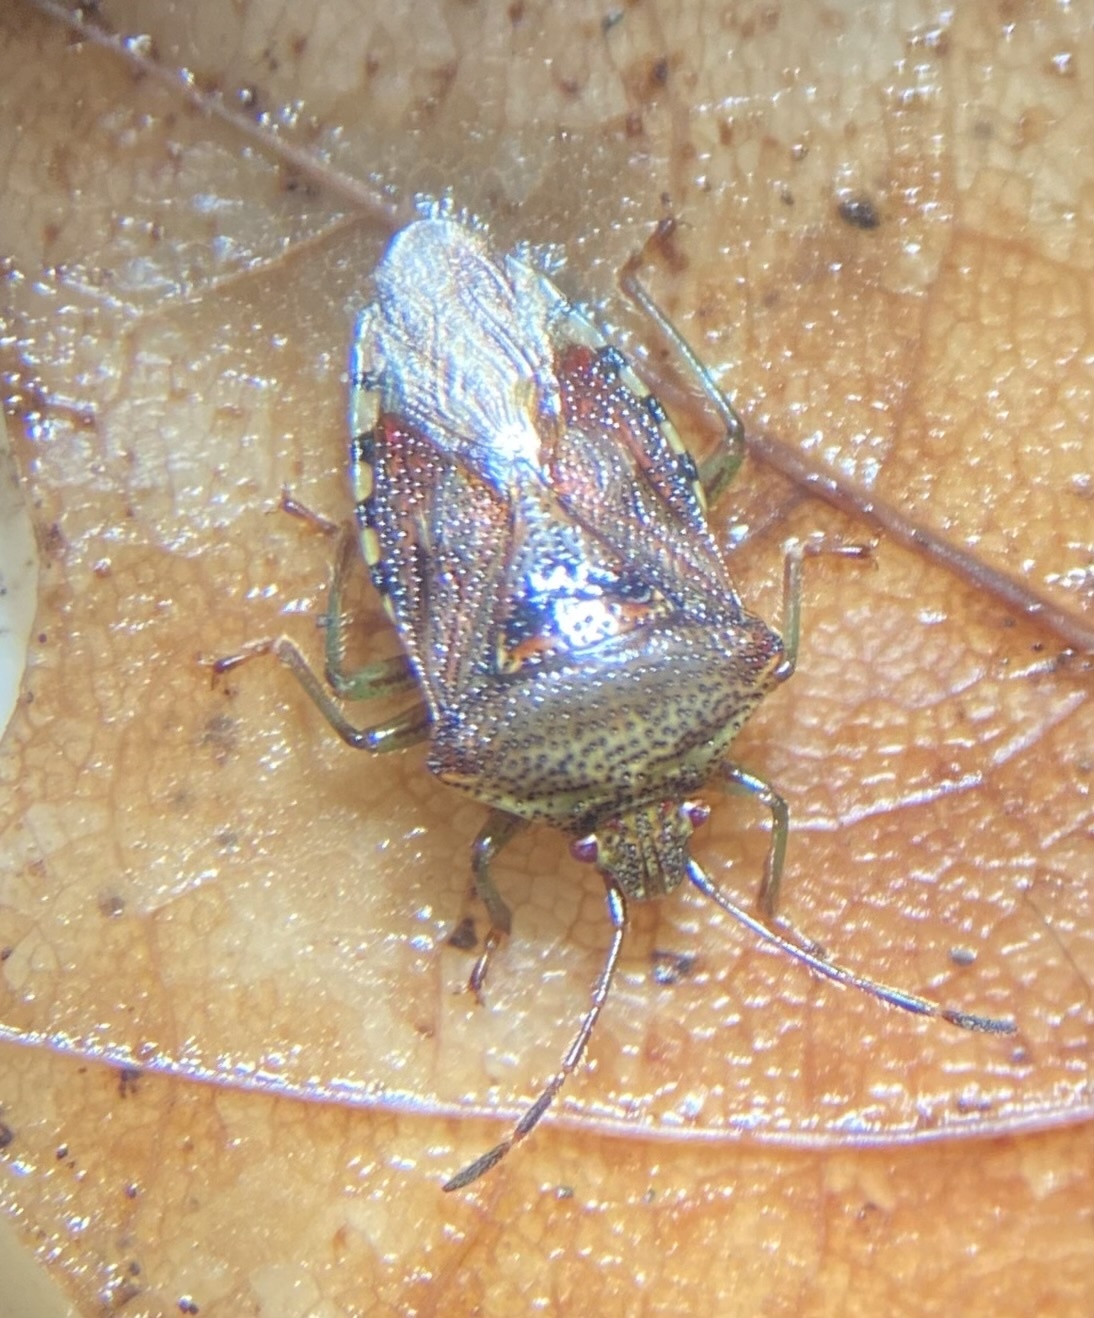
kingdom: Animalia
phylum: Arthropoda
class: Insecta
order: Hemiptera
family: Acanthosomatidae
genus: Elasmucha
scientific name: Elasmucha grisea
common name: Parent bug
